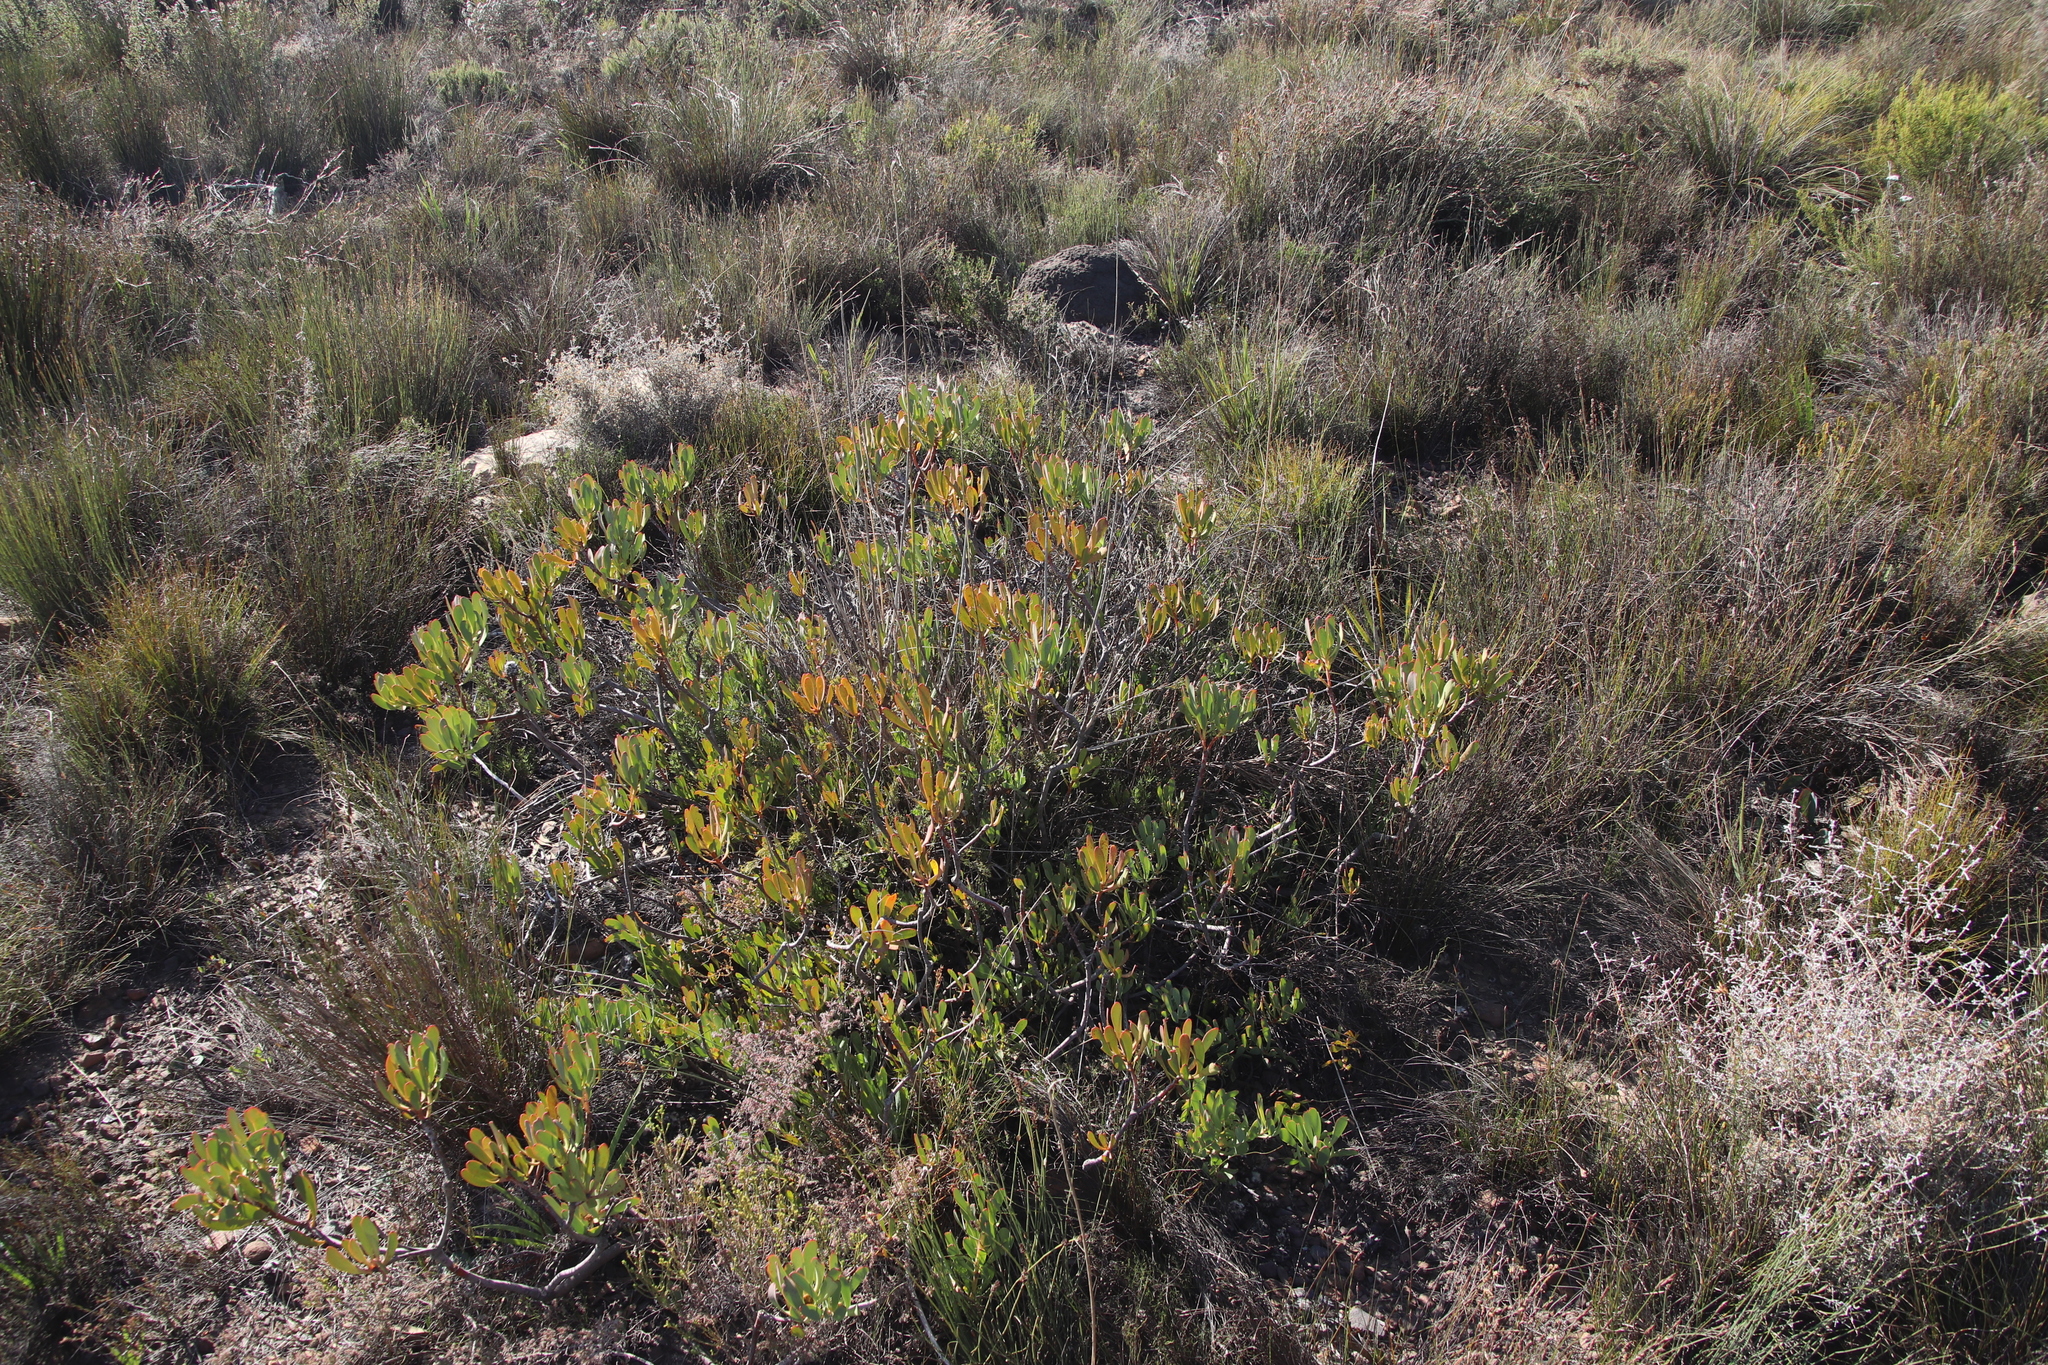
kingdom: Plantae
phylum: Tracheophyta
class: Magnoliopsida
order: Proteales
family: Proteaceae
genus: Leucadendron
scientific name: Leucadendron arcuatum
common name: Red-edge conebush
